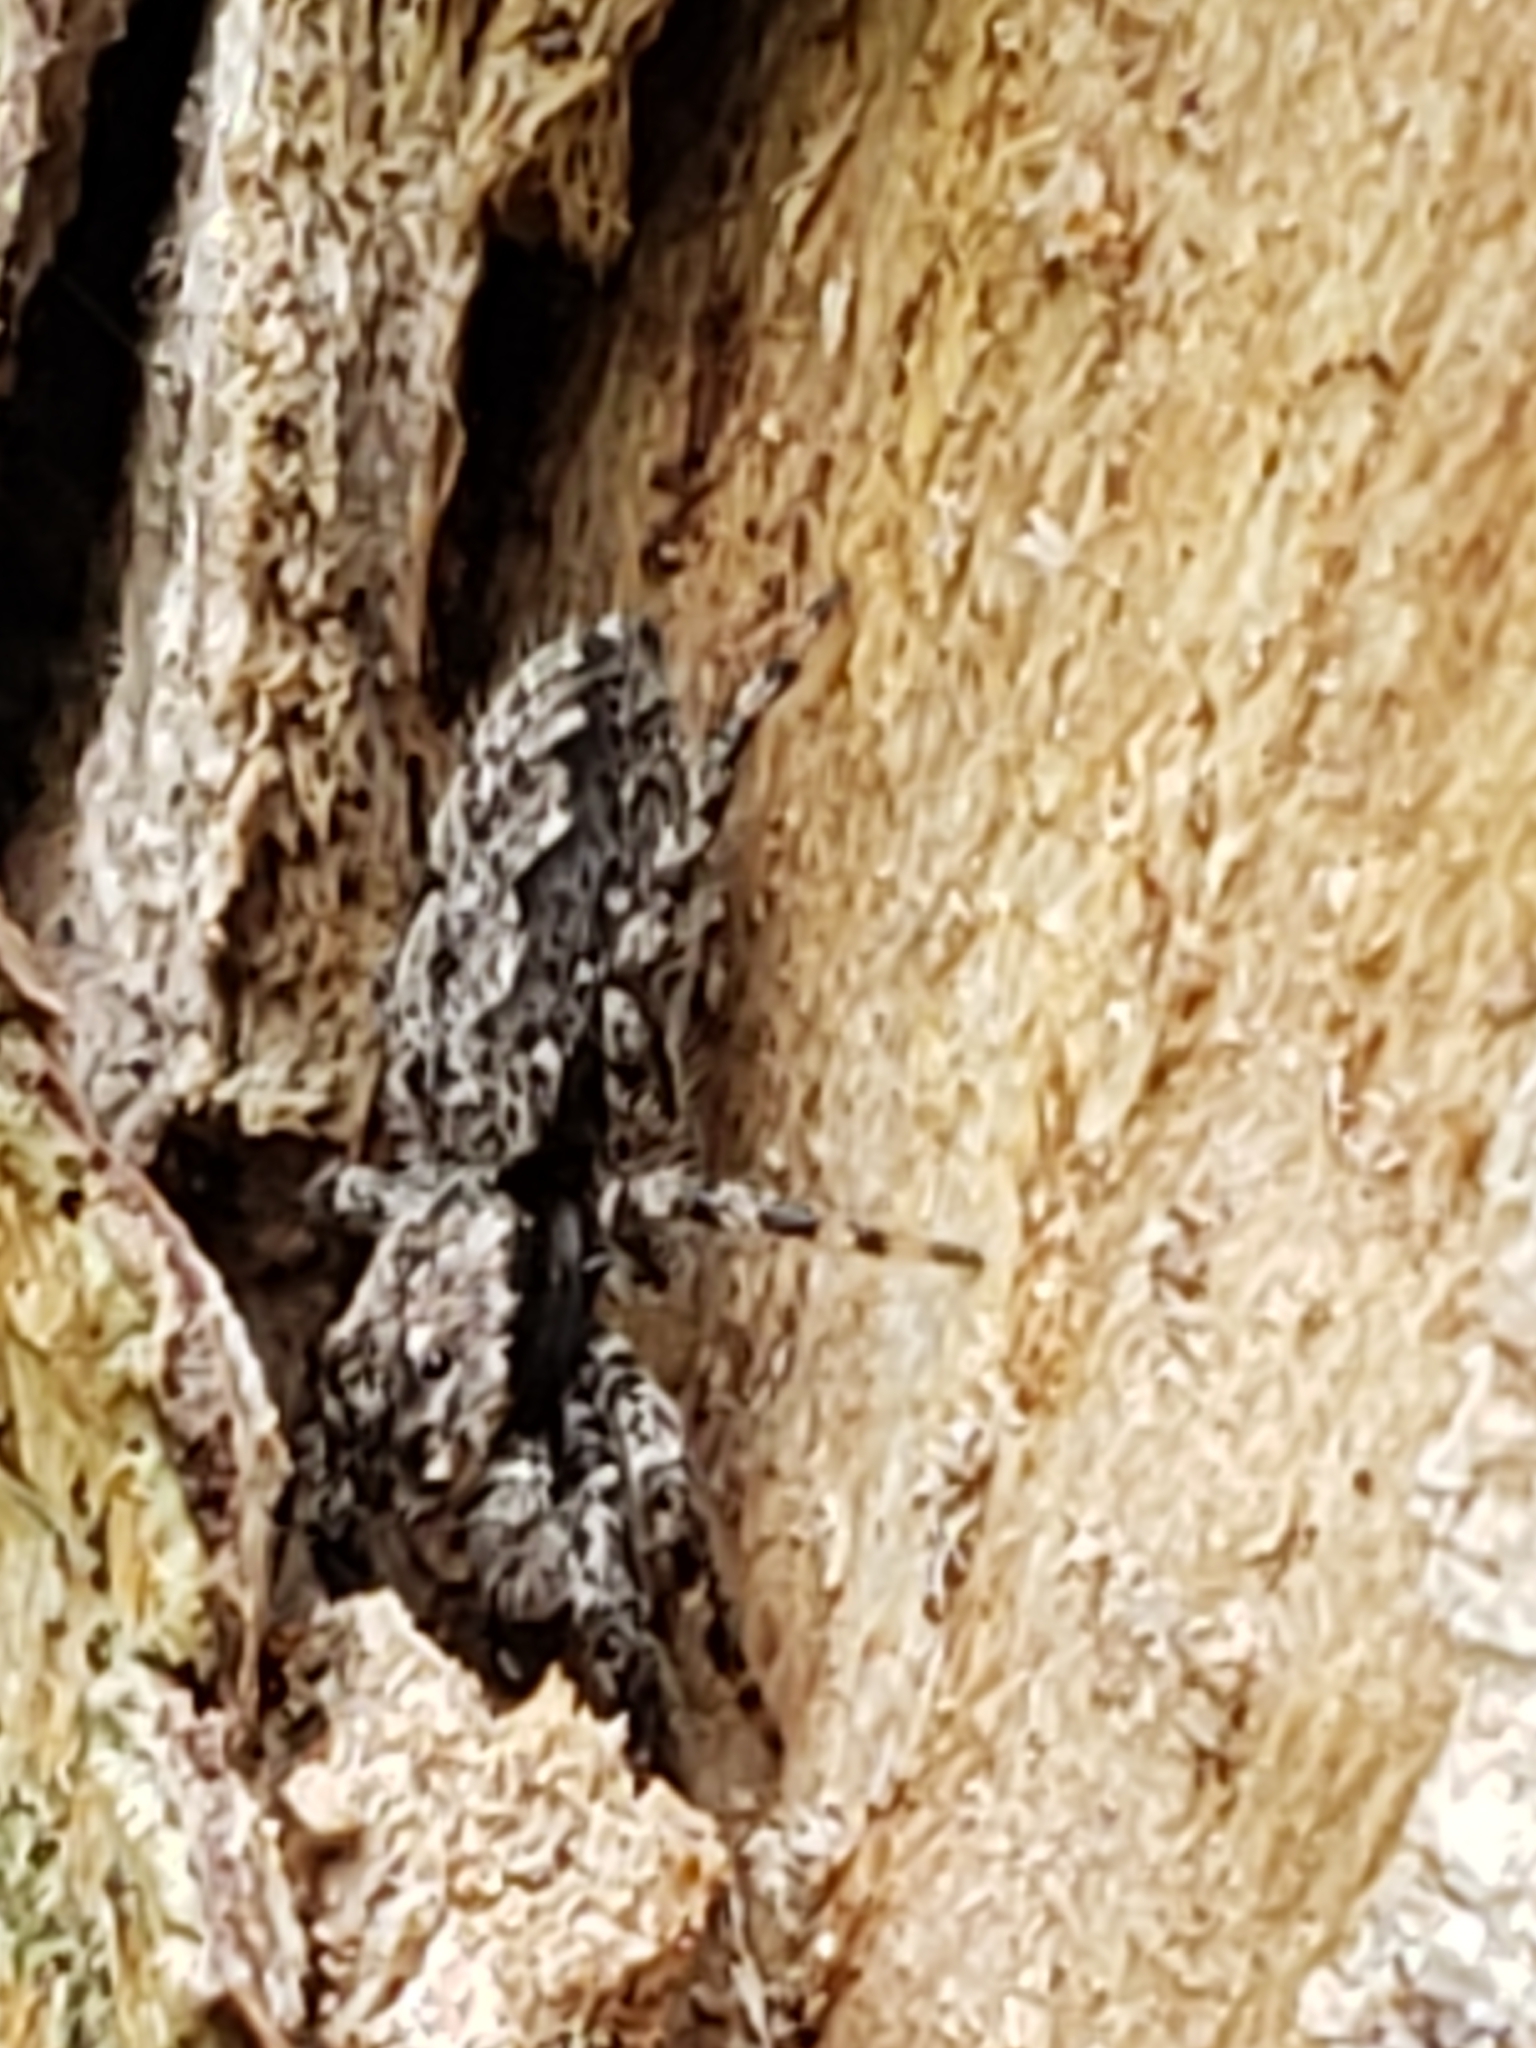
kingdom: Animalia
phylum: Arthropoda
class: Arachnida
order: Araneae
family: Salticidae
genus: Platycryptus
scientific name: Platycryptus undatus
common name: Tan jumping spider
